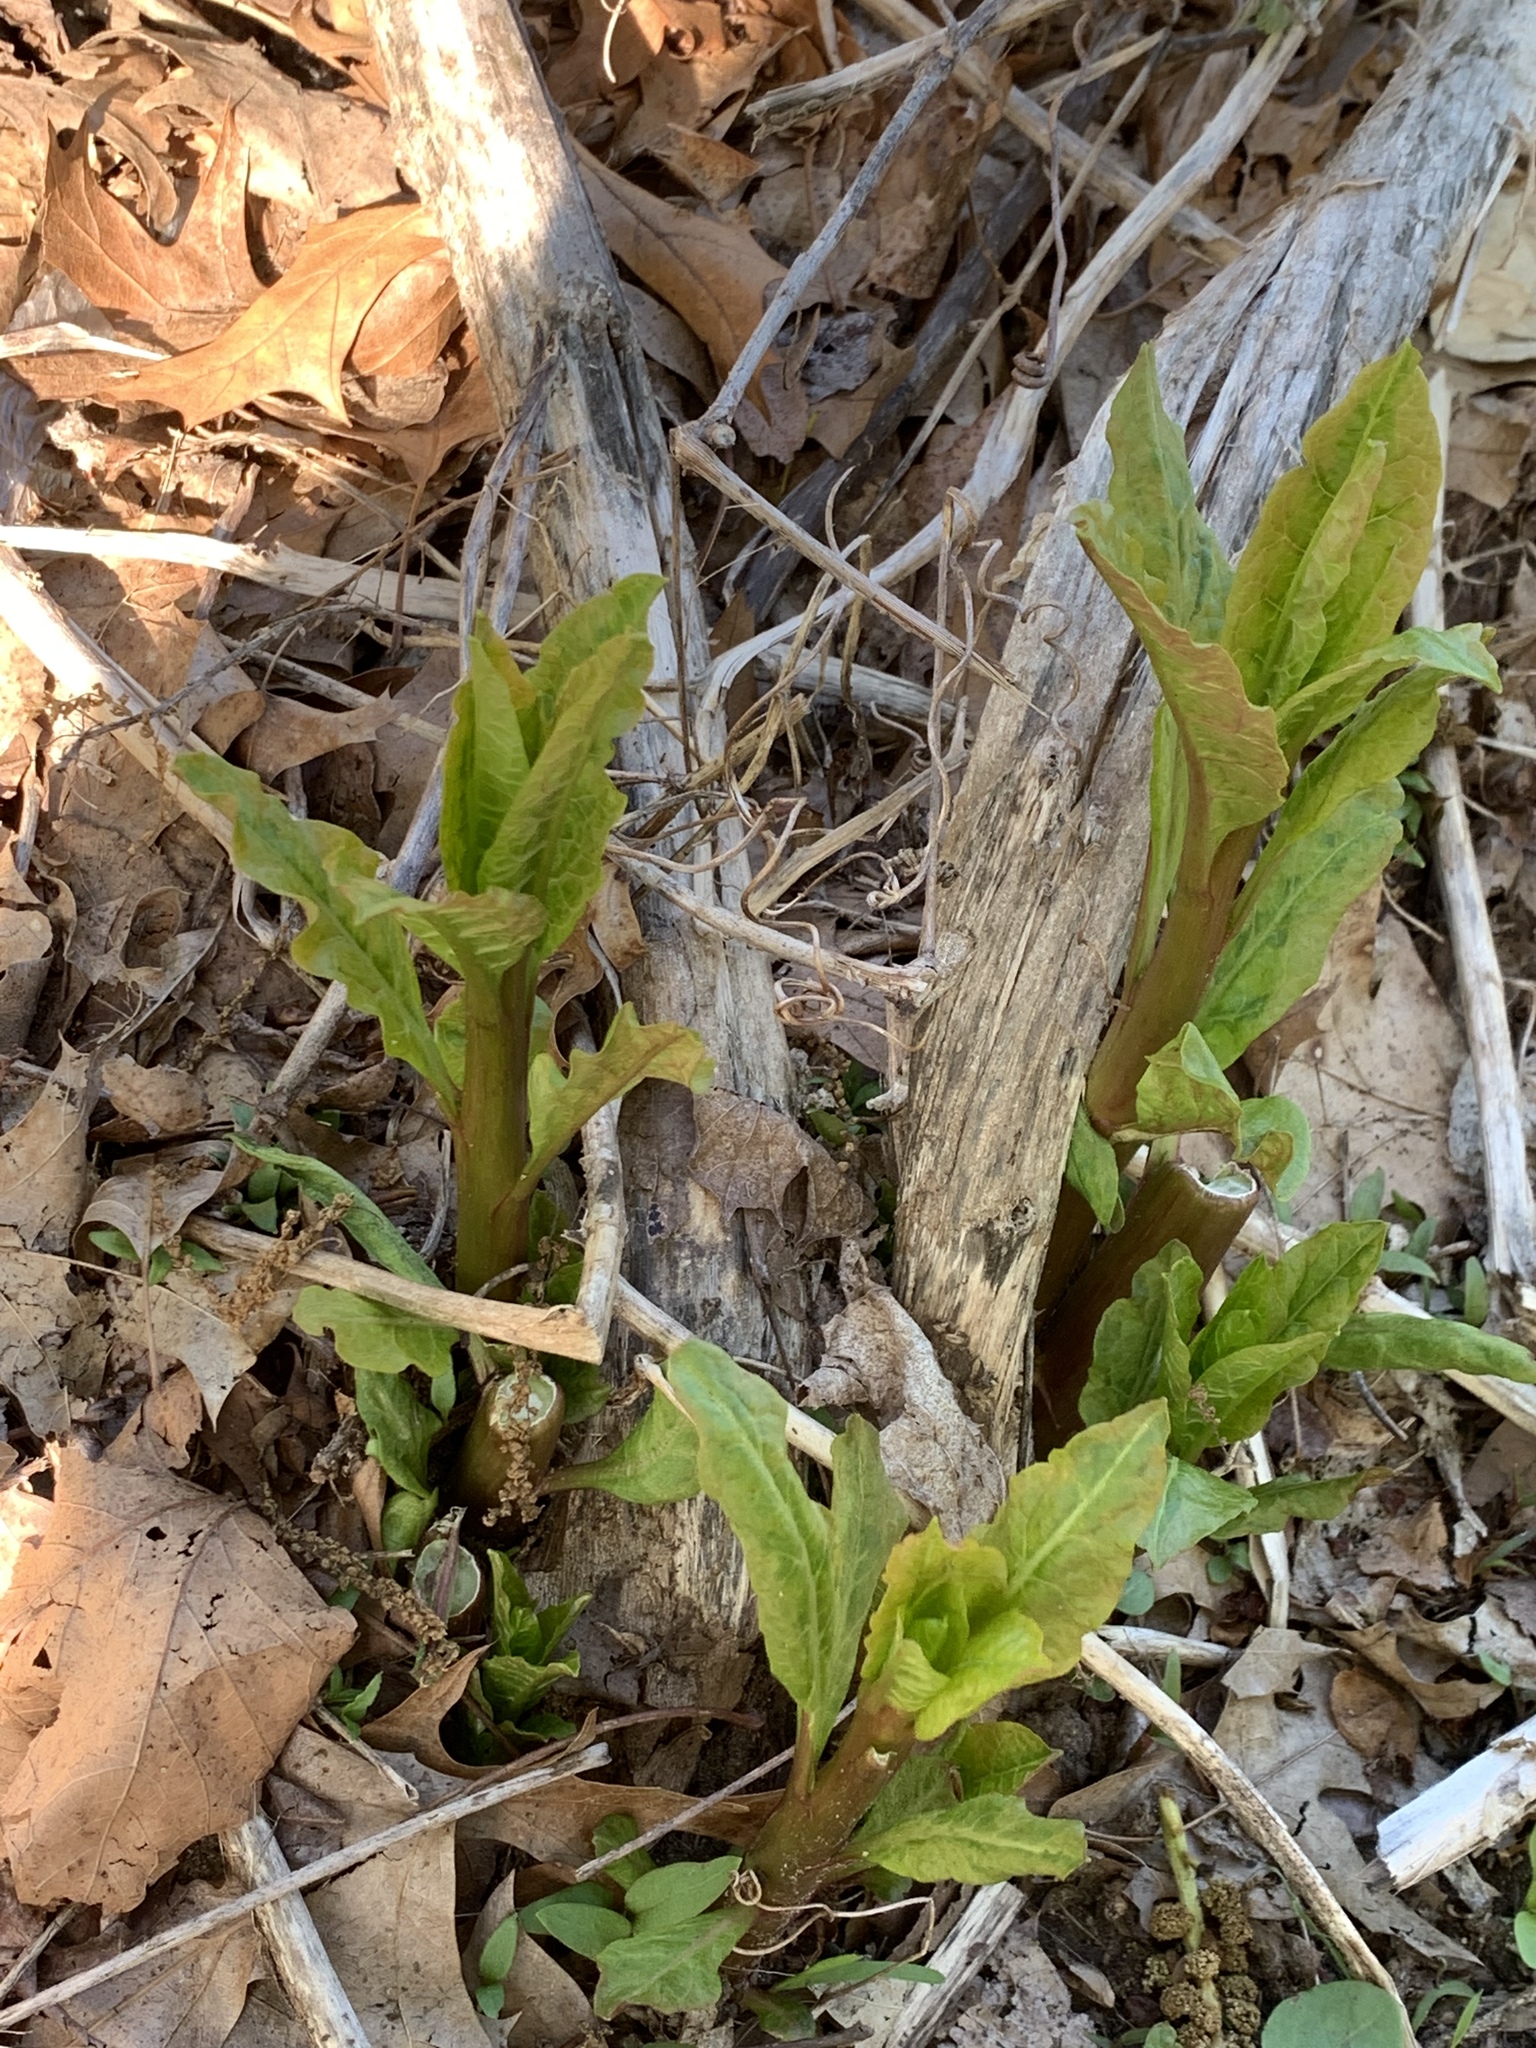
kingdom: Plantae
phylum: Tracheophyta
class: Magnoliopsida
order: Caryophyllales
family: Phytolaccaceae
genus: Phytolacca
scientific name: Phytolacca americana
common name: American pokeweed
